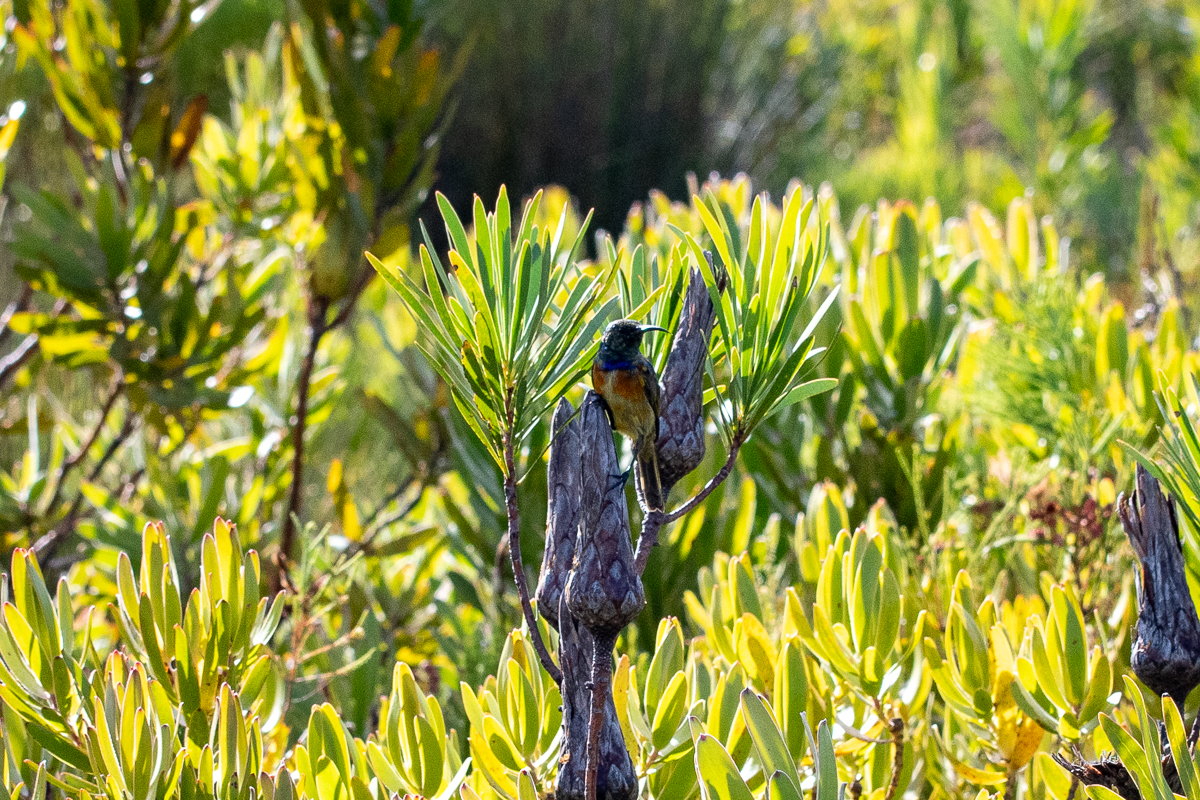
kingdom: Animalia
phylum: Chordata
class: Aves
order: Passeriformes
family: Nectariniidae
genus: Anthobaphes
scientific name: Anthobaphes violacea
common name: Orange-breasted sunbird
